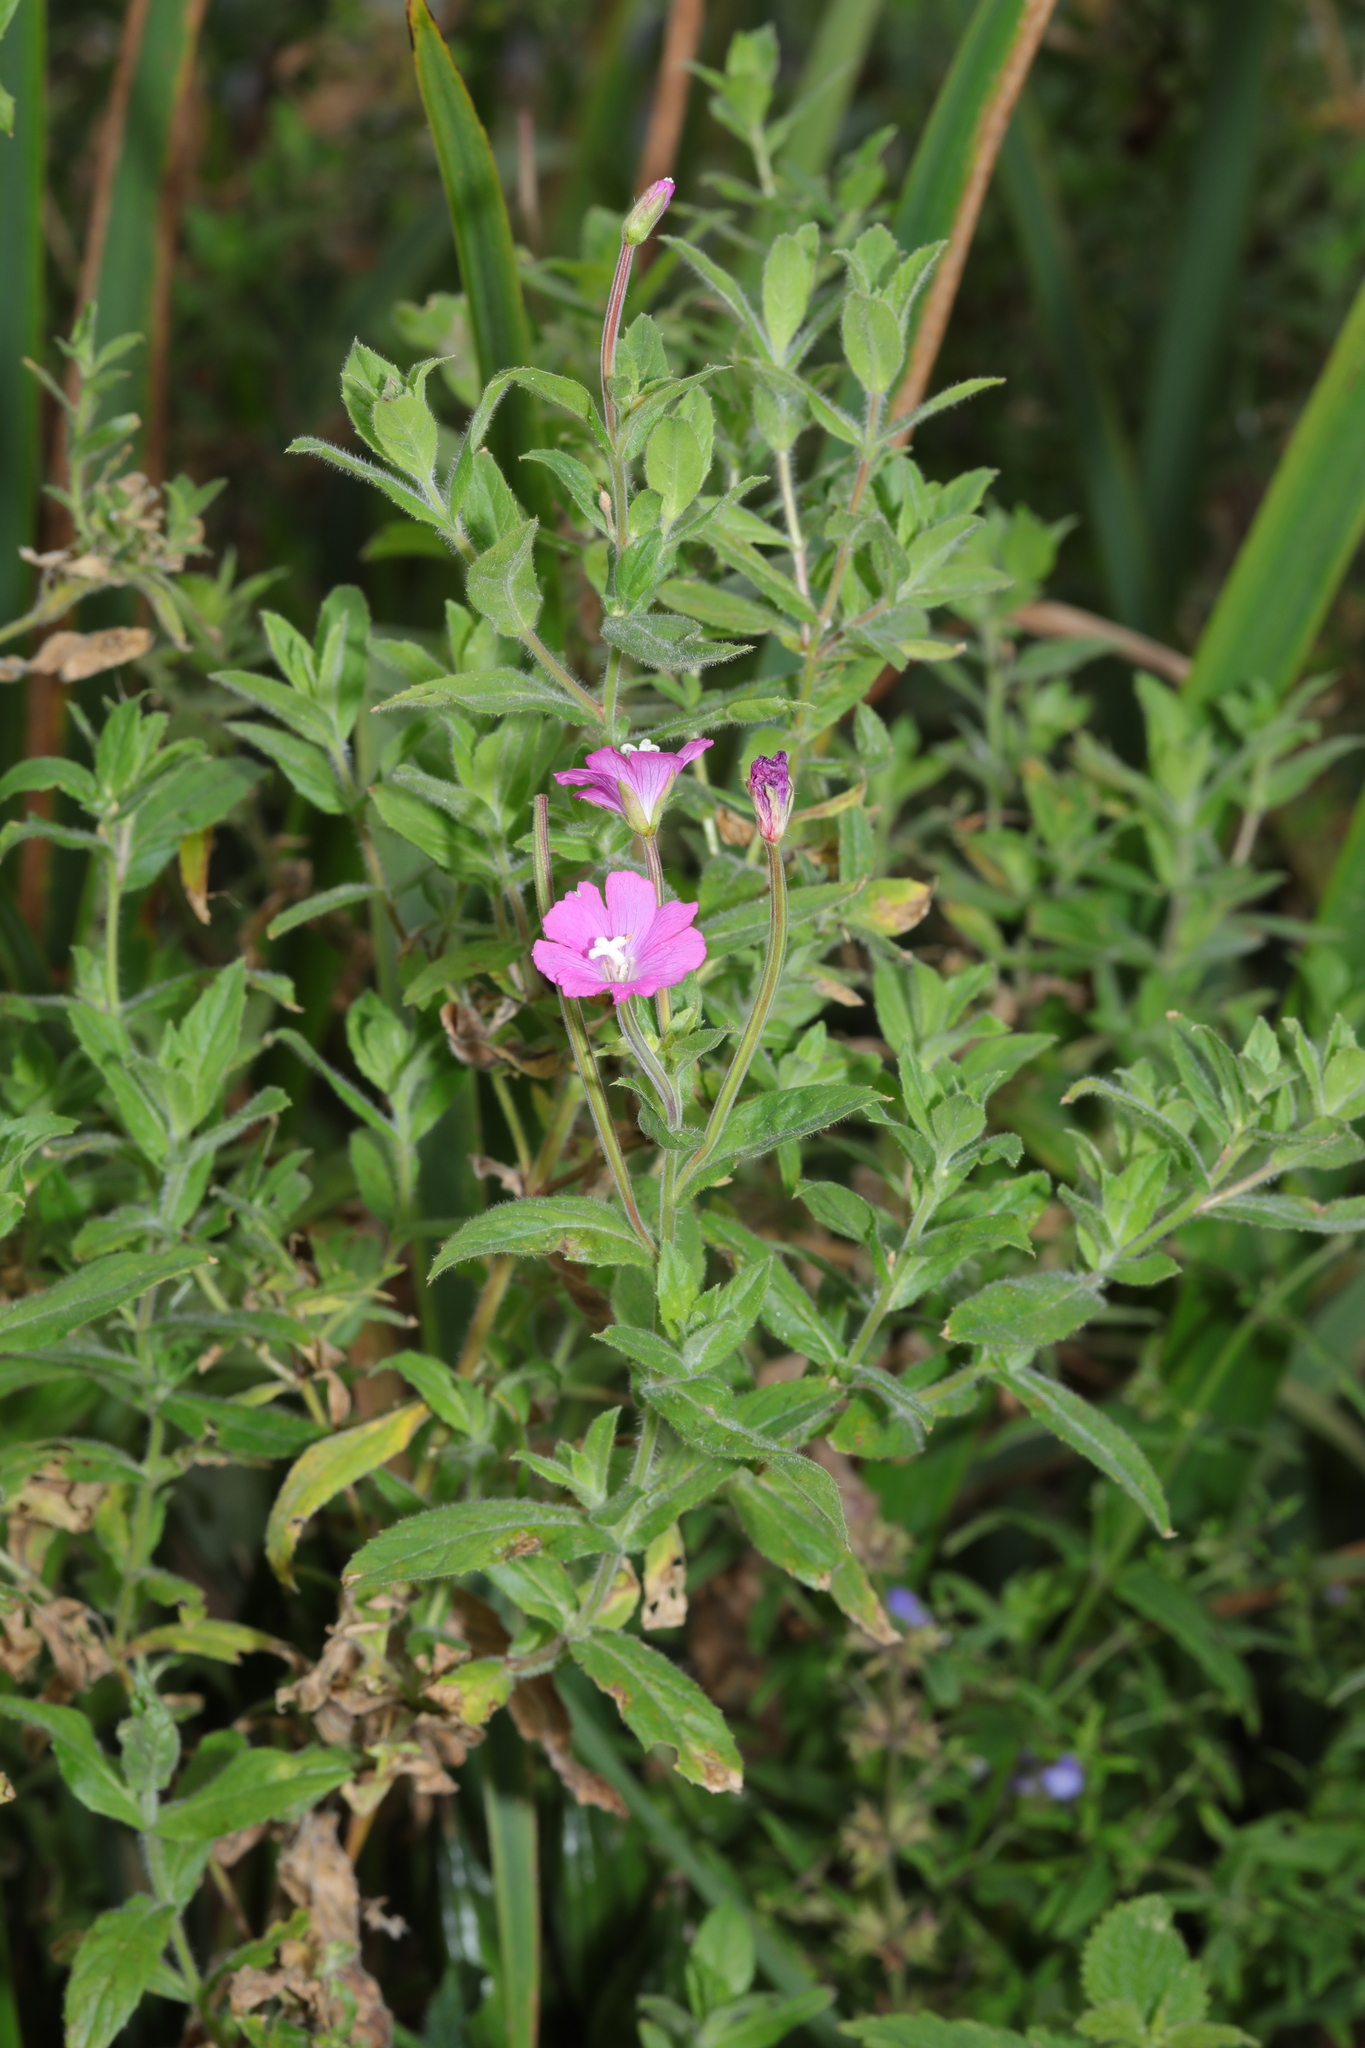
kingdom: Plantae
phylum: Tracheophyta
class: Magnoliopsida
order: Myrtales
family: Onagraceae
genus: Epilobium
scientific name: Epilobium hirsutum
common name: Great willowherb
